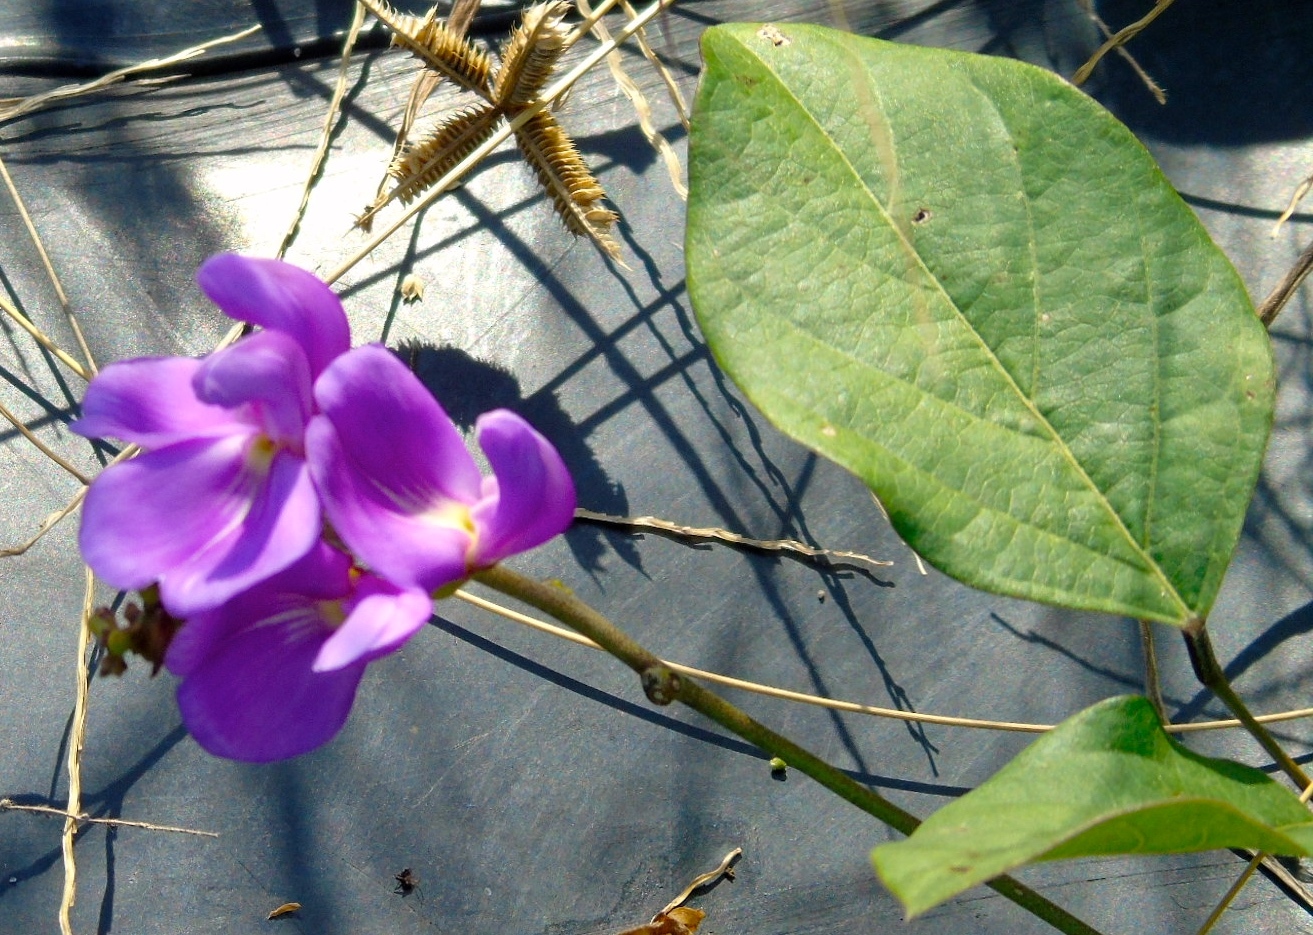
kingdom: Plantae
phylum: Tracheophyta
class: Magnoliopsida
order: Fabales
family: Fabaceae
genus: Canavalia
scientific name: Canavalia brasiliensis
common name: Barbicou-bean
